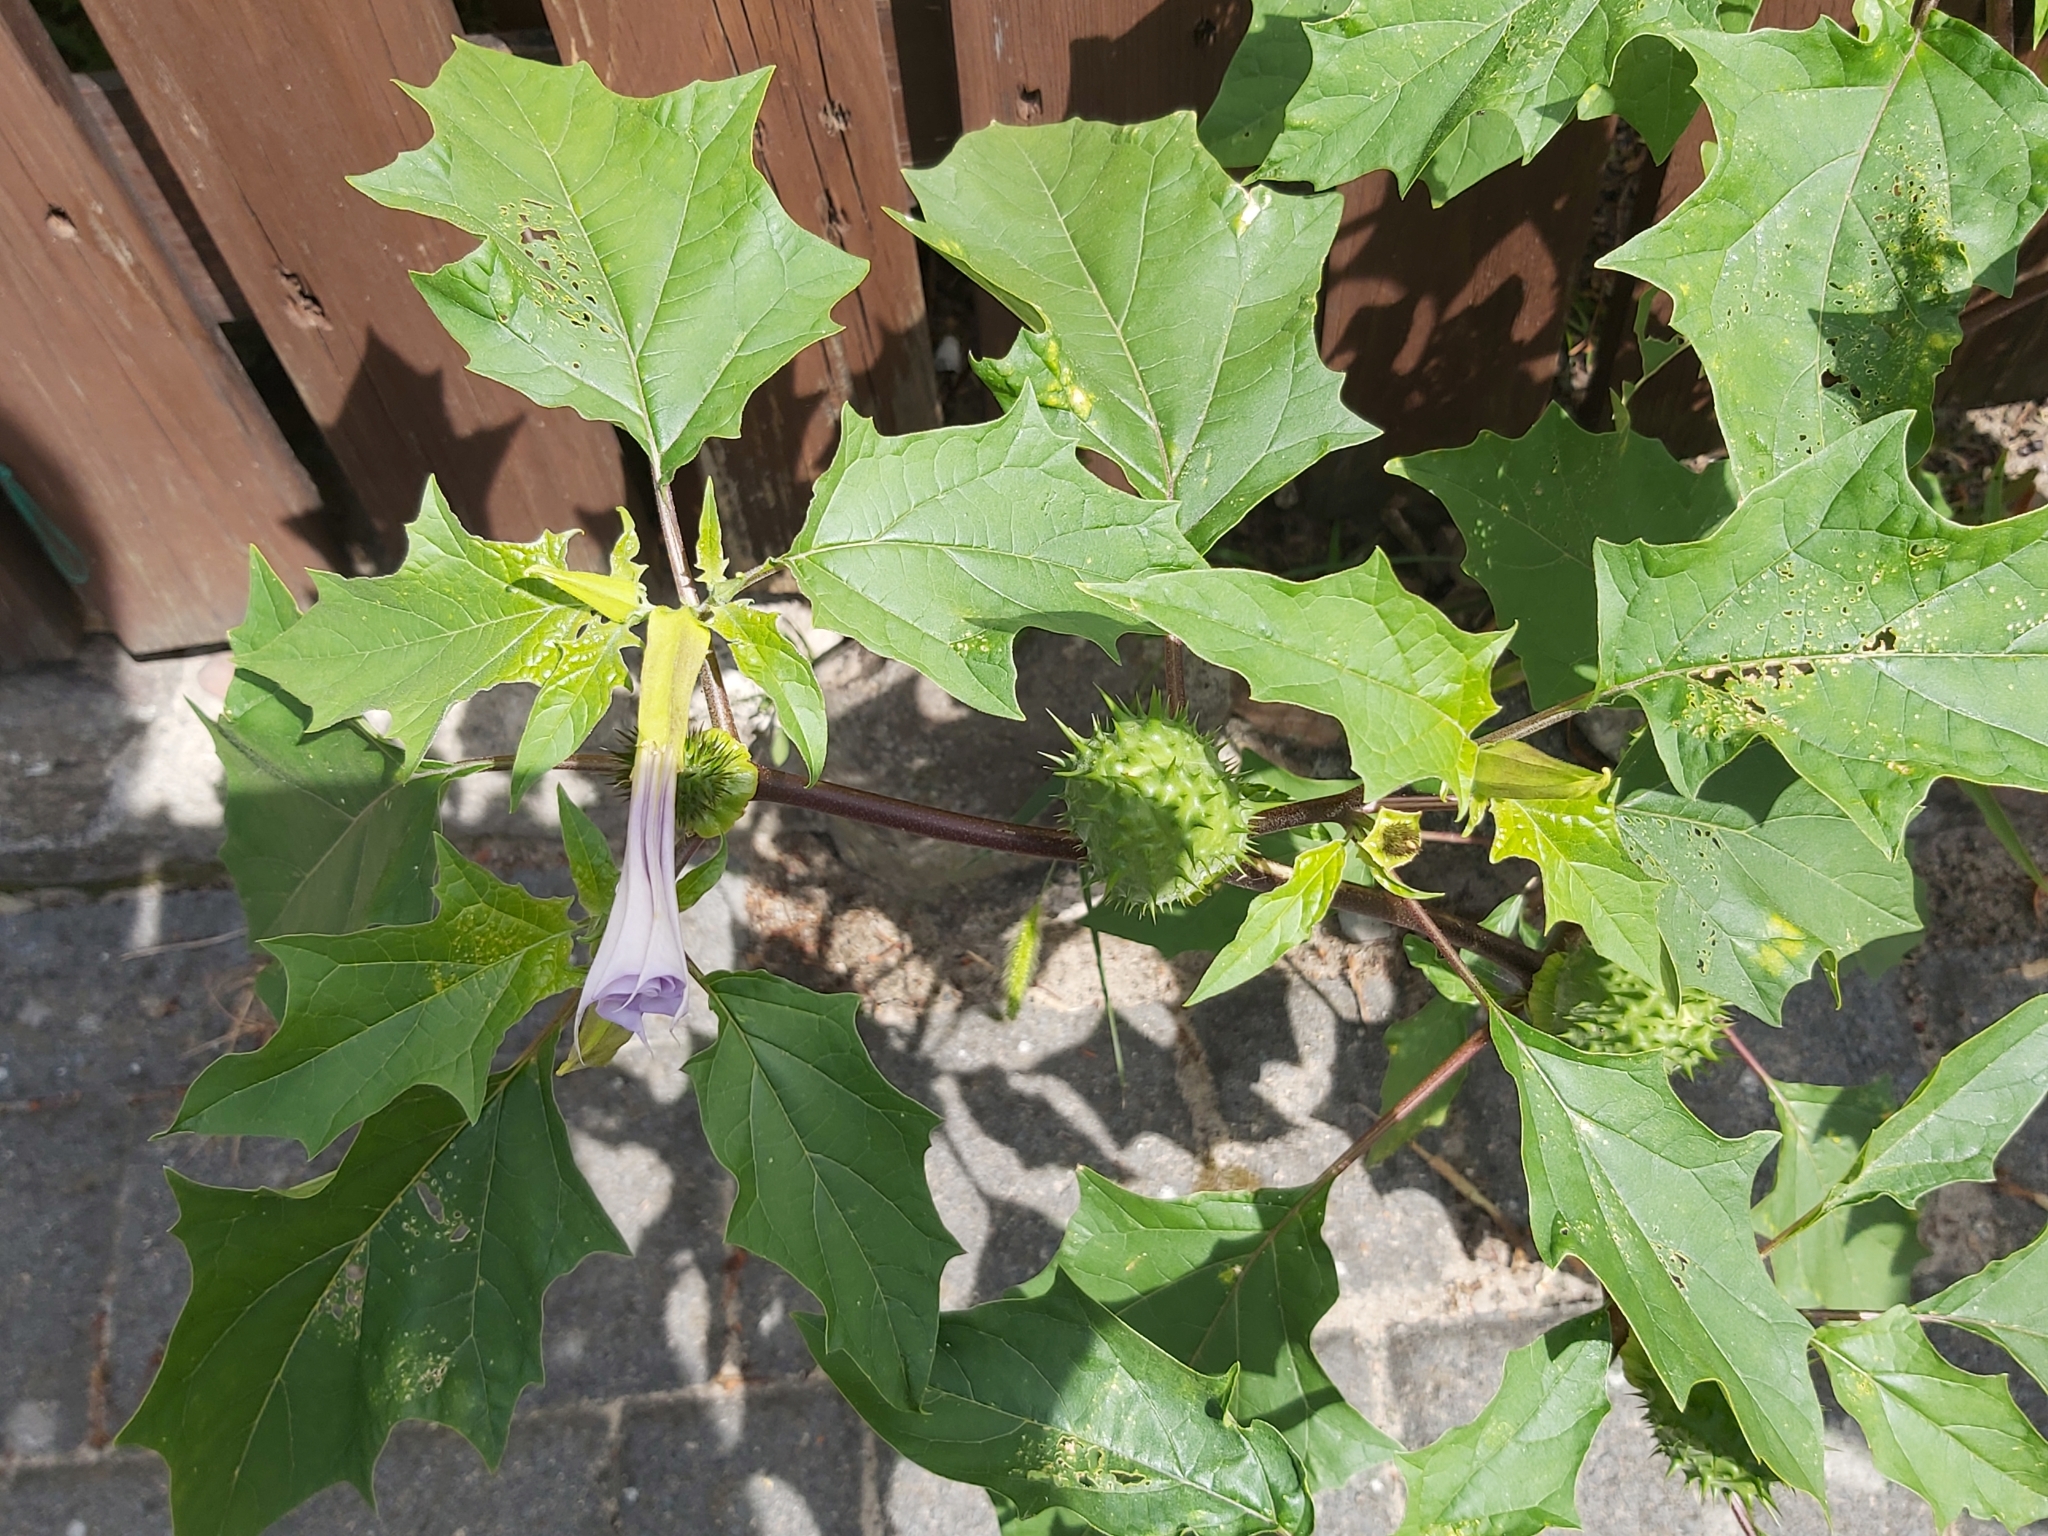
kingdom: Plantae
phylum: Tracheophyta
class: Magnoliopsida
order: Solanales
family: Solanaceae
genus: Datura
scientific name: Datura stramonium
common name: Thorn-apple
